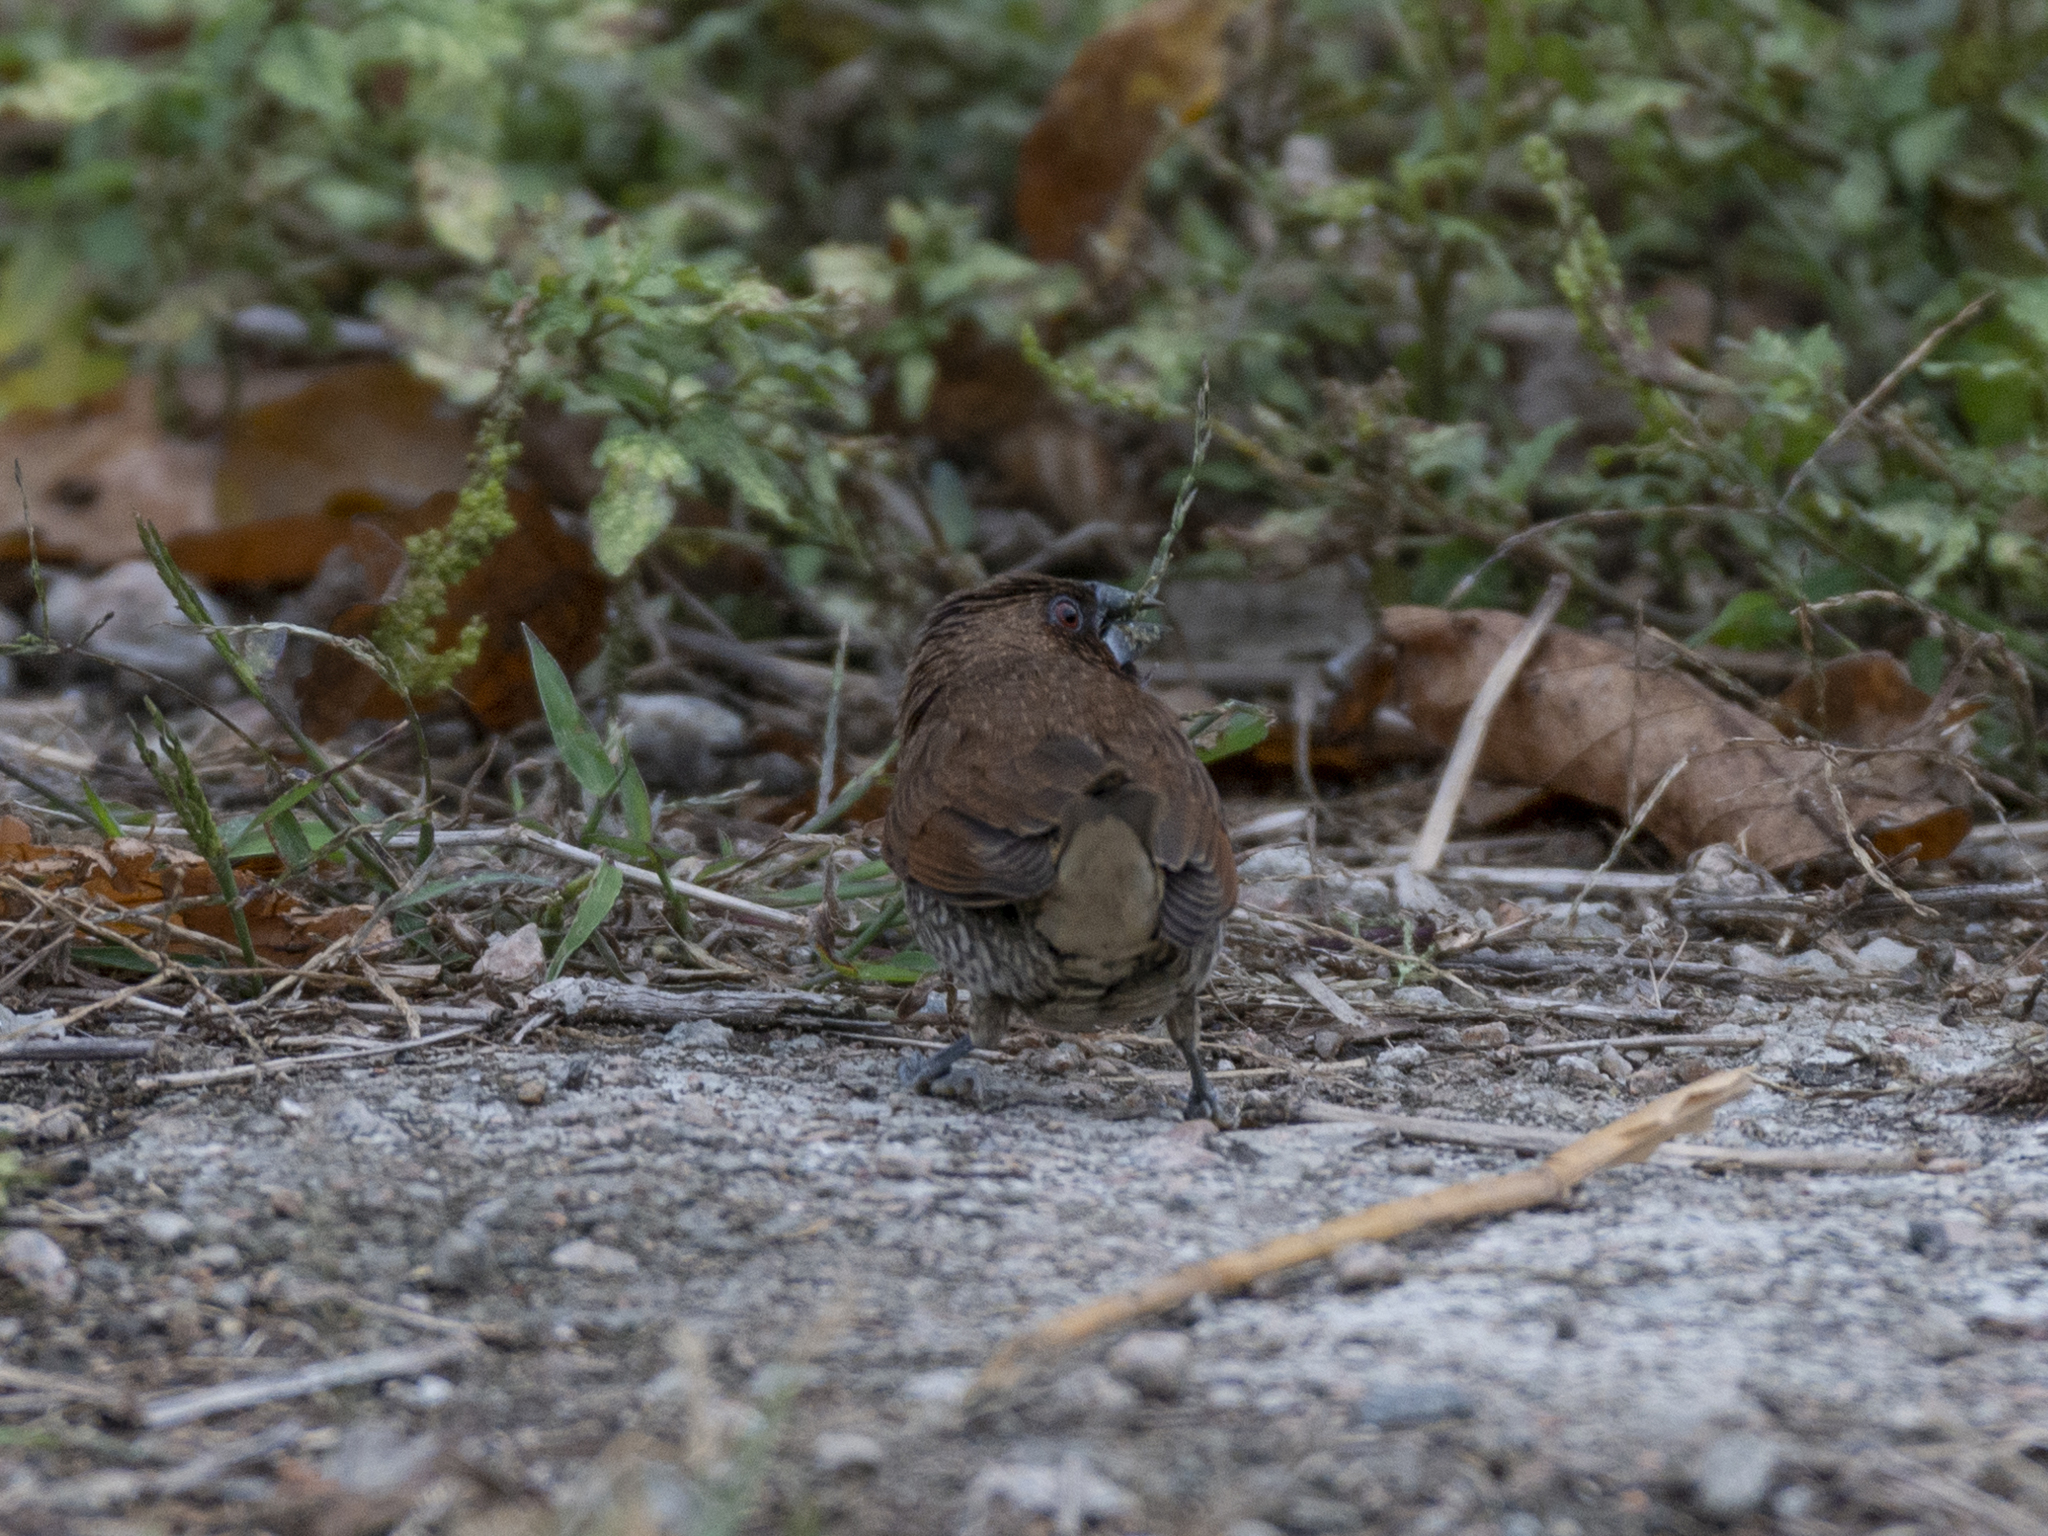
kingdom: Animalia
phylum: Chordata
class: Aves
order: Passeriformes
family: Estrildidae
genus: Lonchura
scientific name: Lonchura punctulata
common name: Scaly-breasted munia
